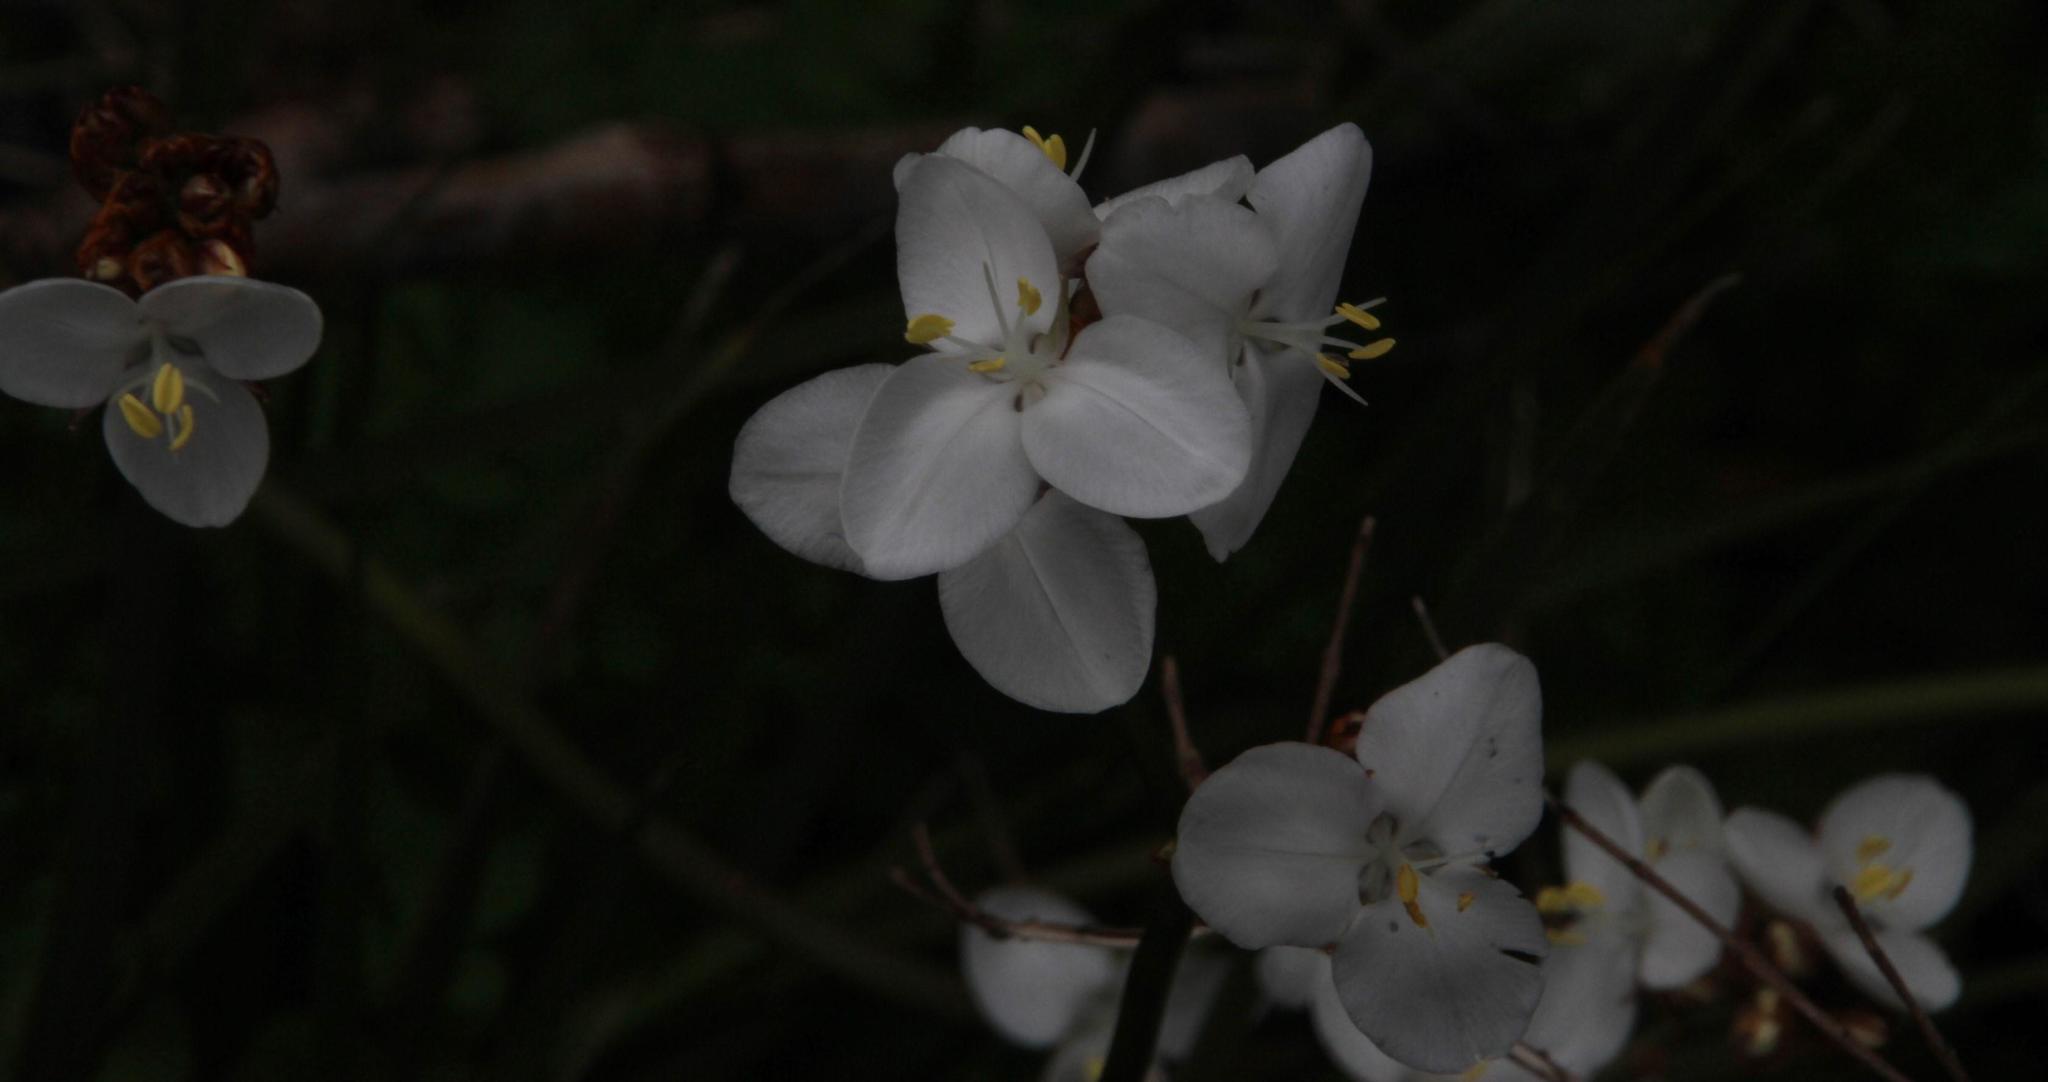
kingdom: Plantae
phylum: Tracheophyta
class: Liliopsida
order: Asparagales
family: Iridaceae
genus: Libertia
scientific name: Libertia chilensis
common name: Satin flower
